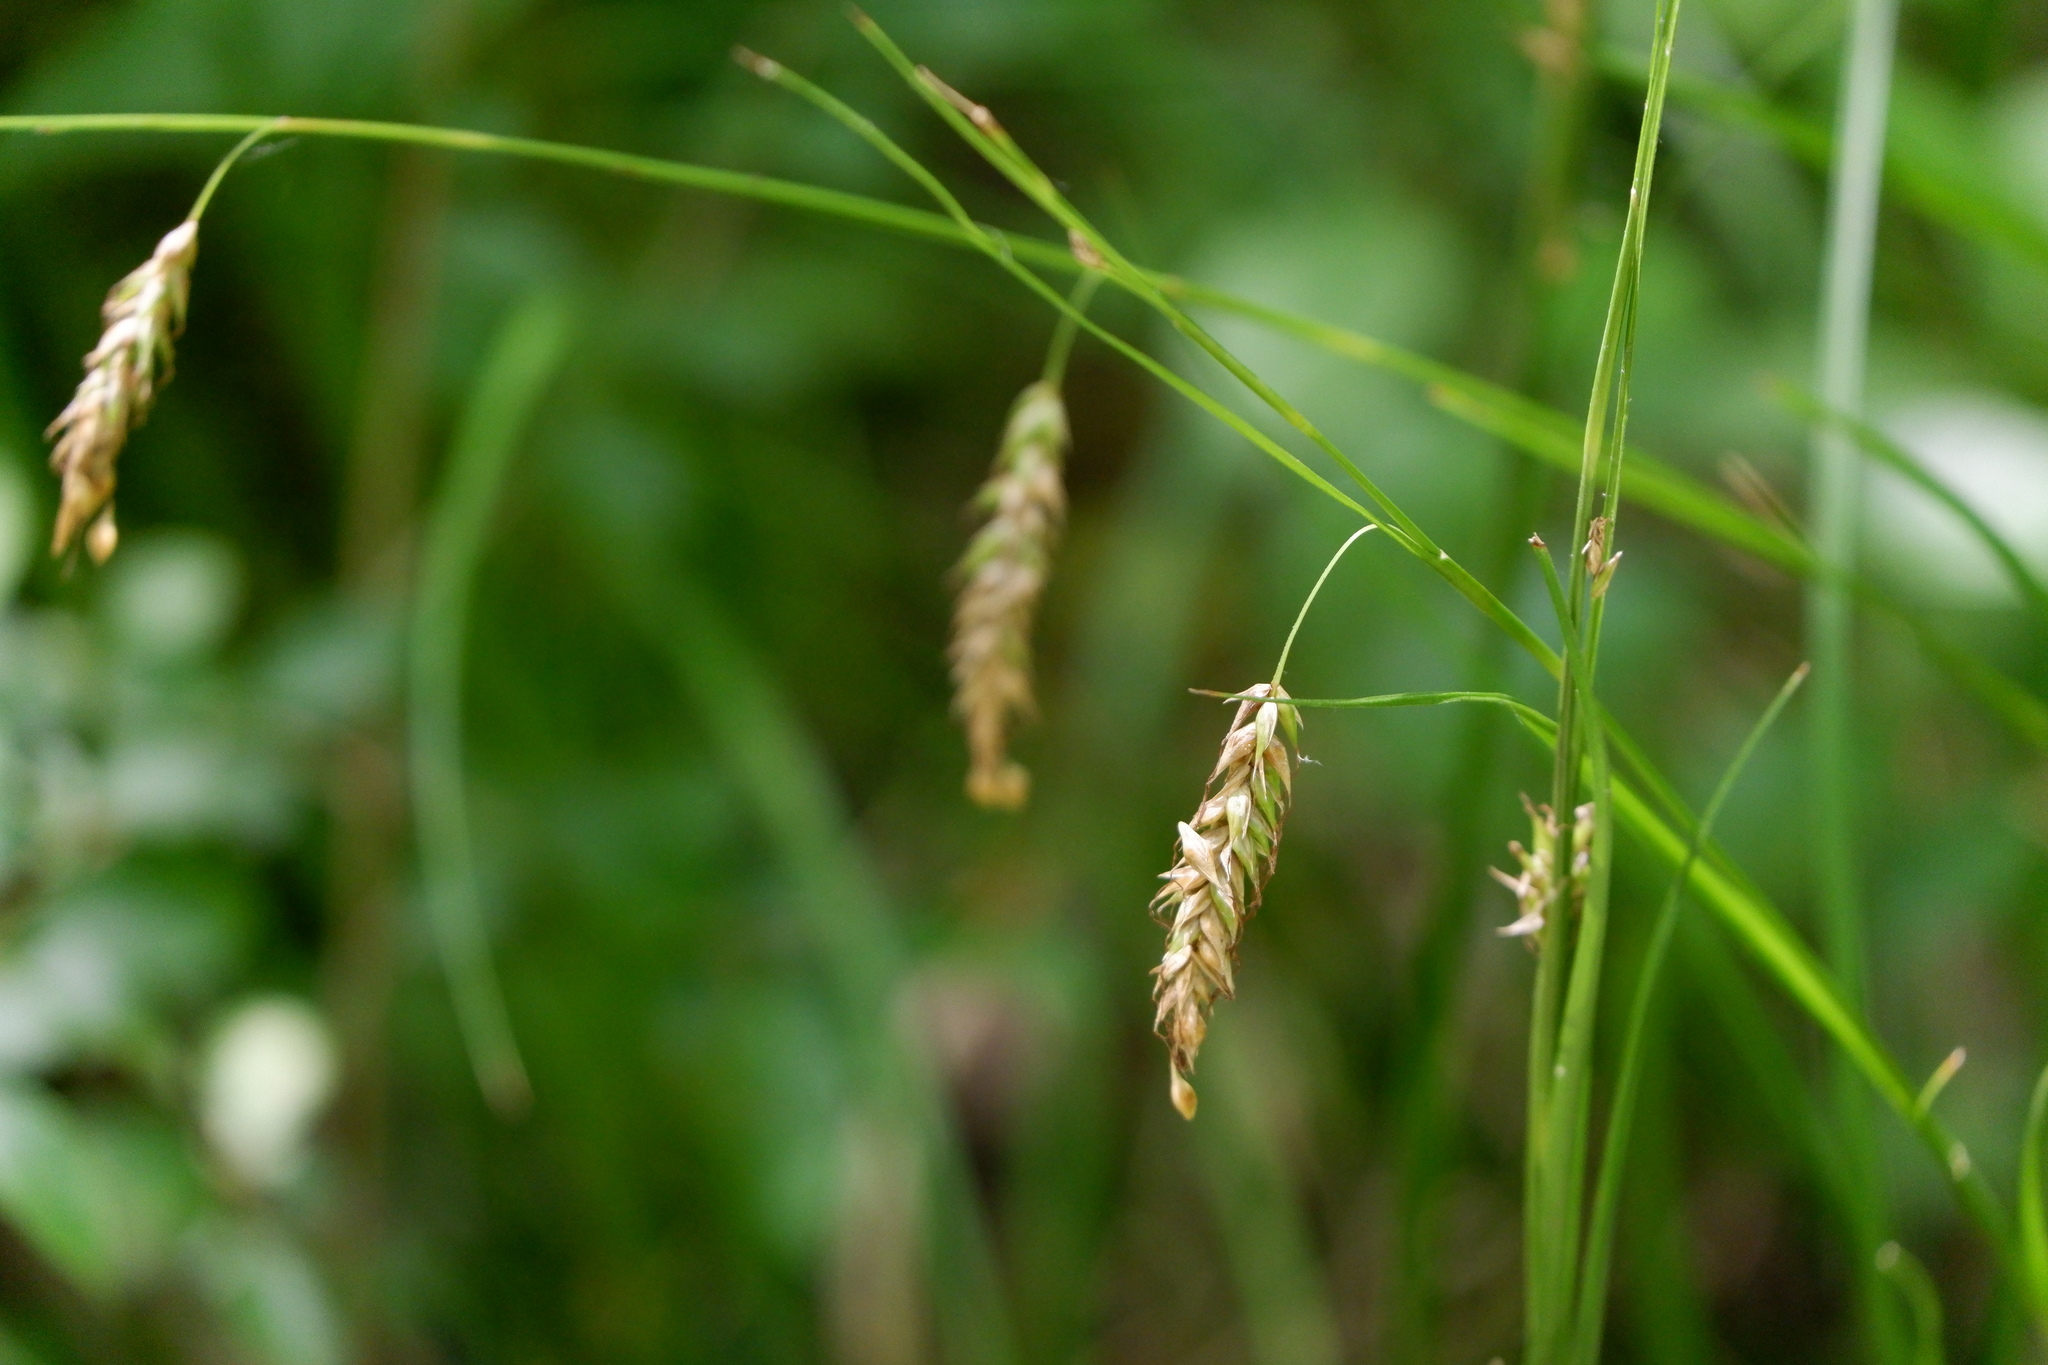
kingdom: Plantae
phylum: Tracheophyta
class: Liliopsida
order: Poales
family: Cyperaceae
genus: Carex
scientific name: Carex cherokeensis
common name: Cherokee sedge
